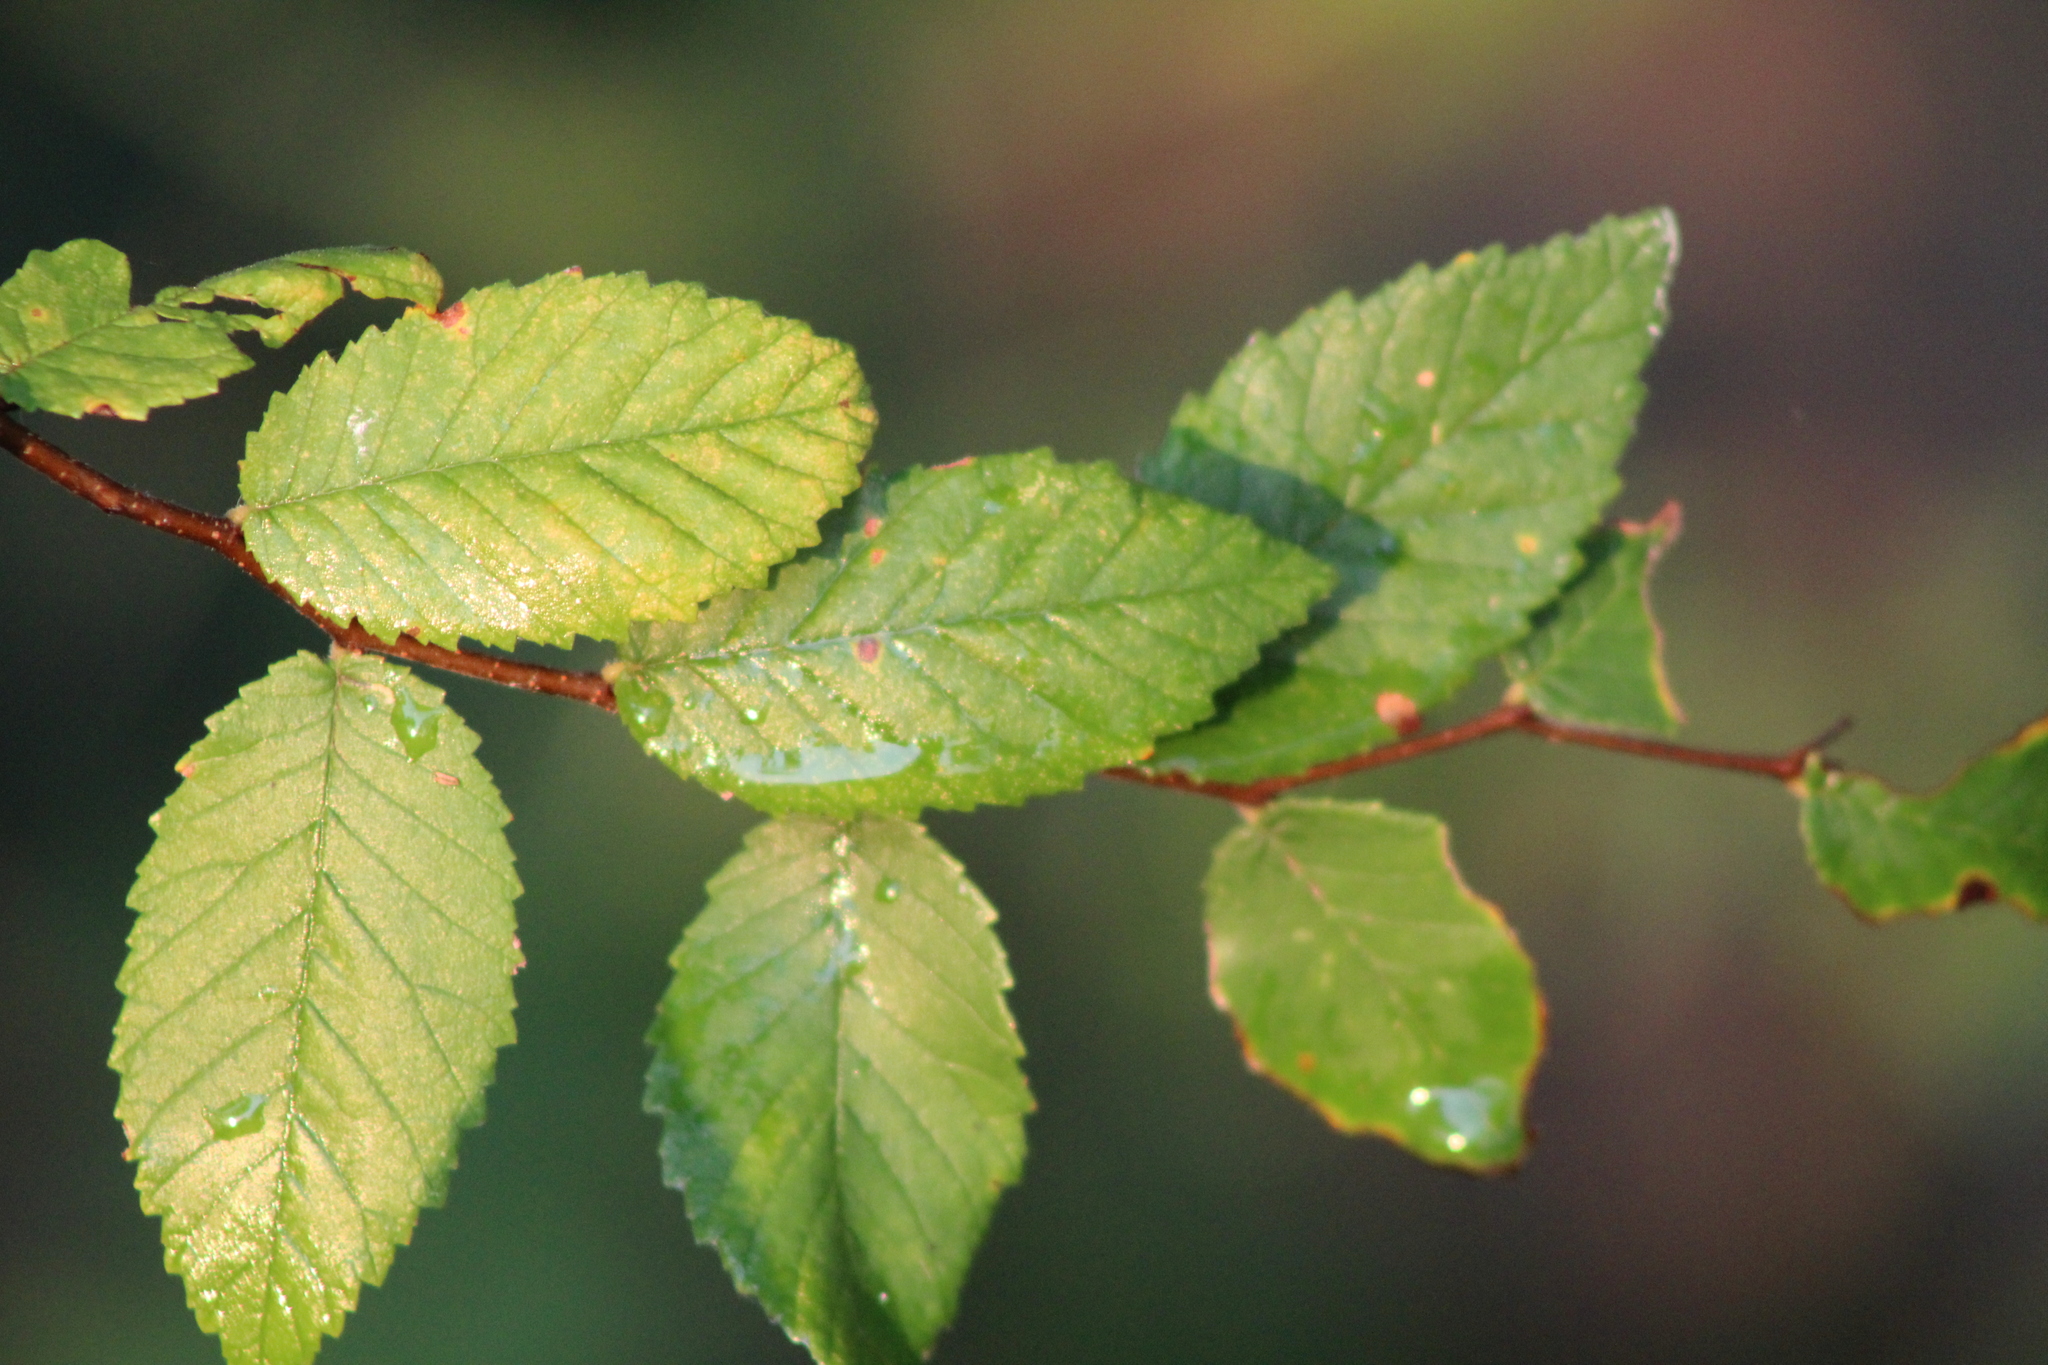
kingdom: Plantae
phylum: Tracheophyta
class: Magnoliopsida
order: Rosales
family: Ulmaceae
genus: Ulmus
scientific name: Ulmus crassifolia
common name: Basket elm
